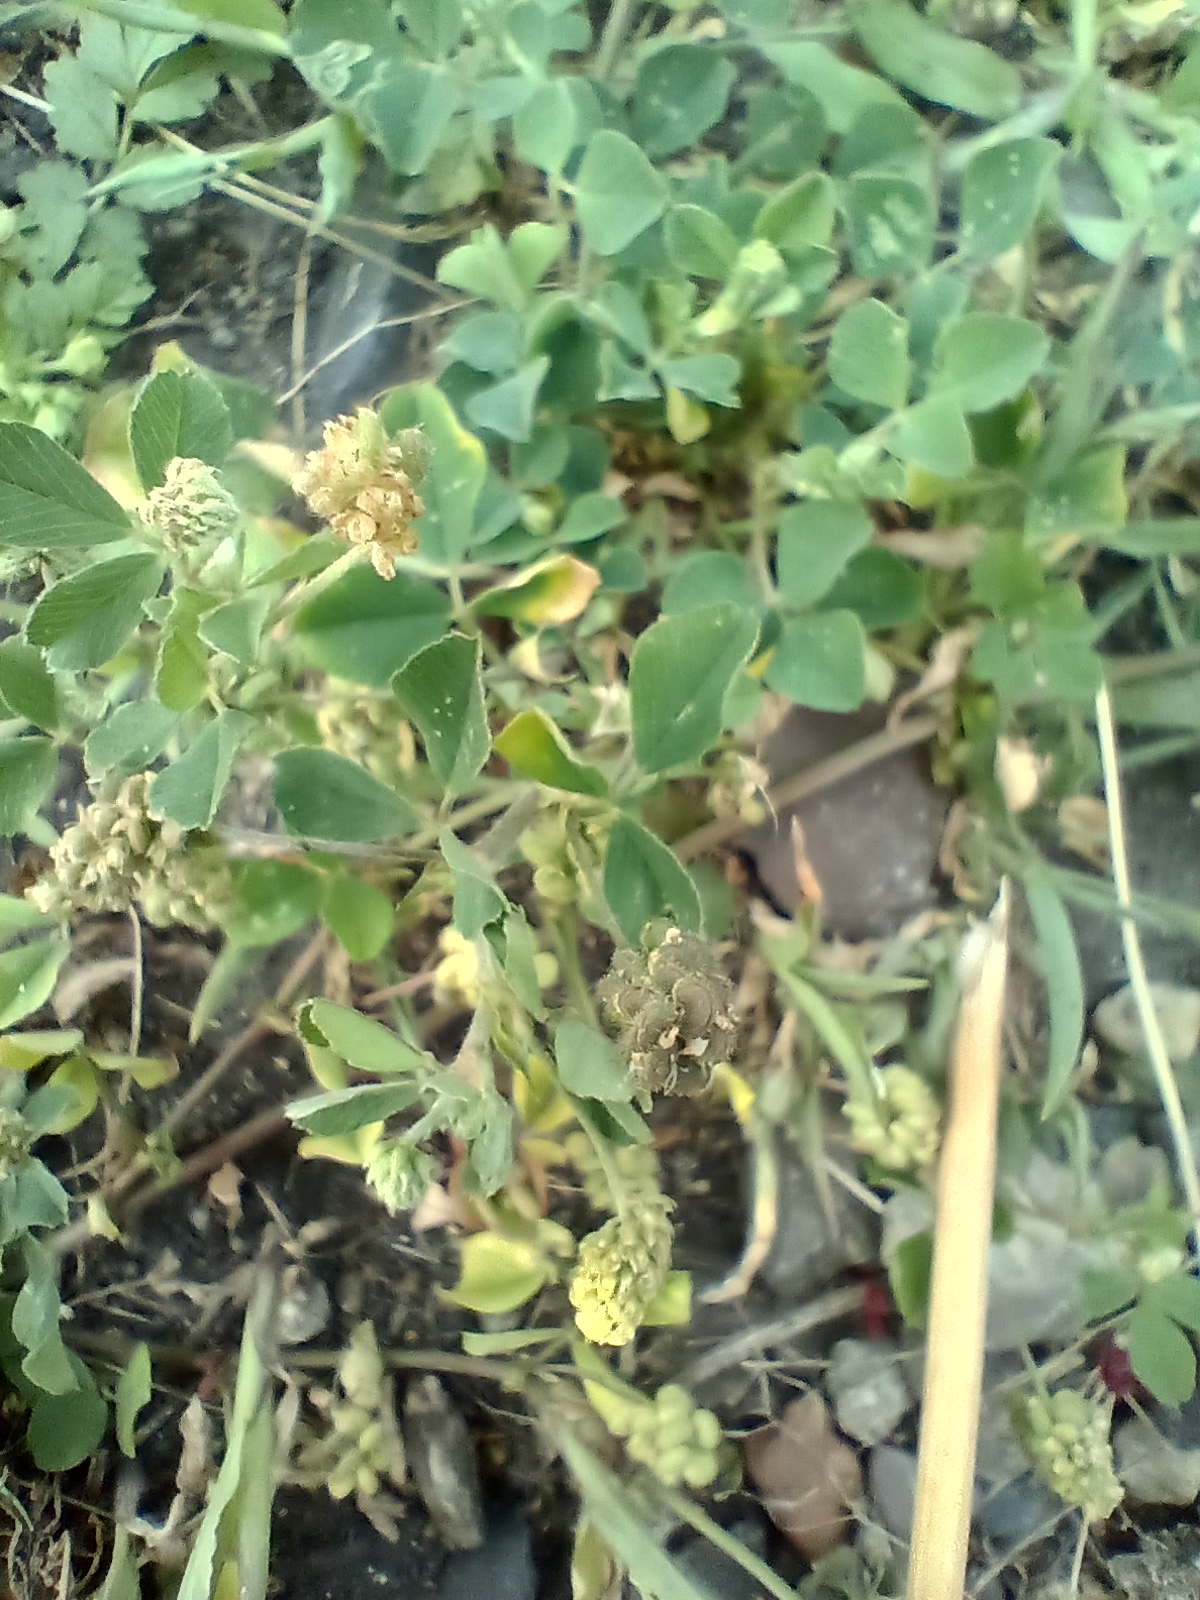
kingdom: Plantae
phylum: Tracheophyta
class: Magnoliopsida
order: Fabales
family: Fabaceae
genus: Medicago
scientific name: Medicago lupulina
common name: Black medick
